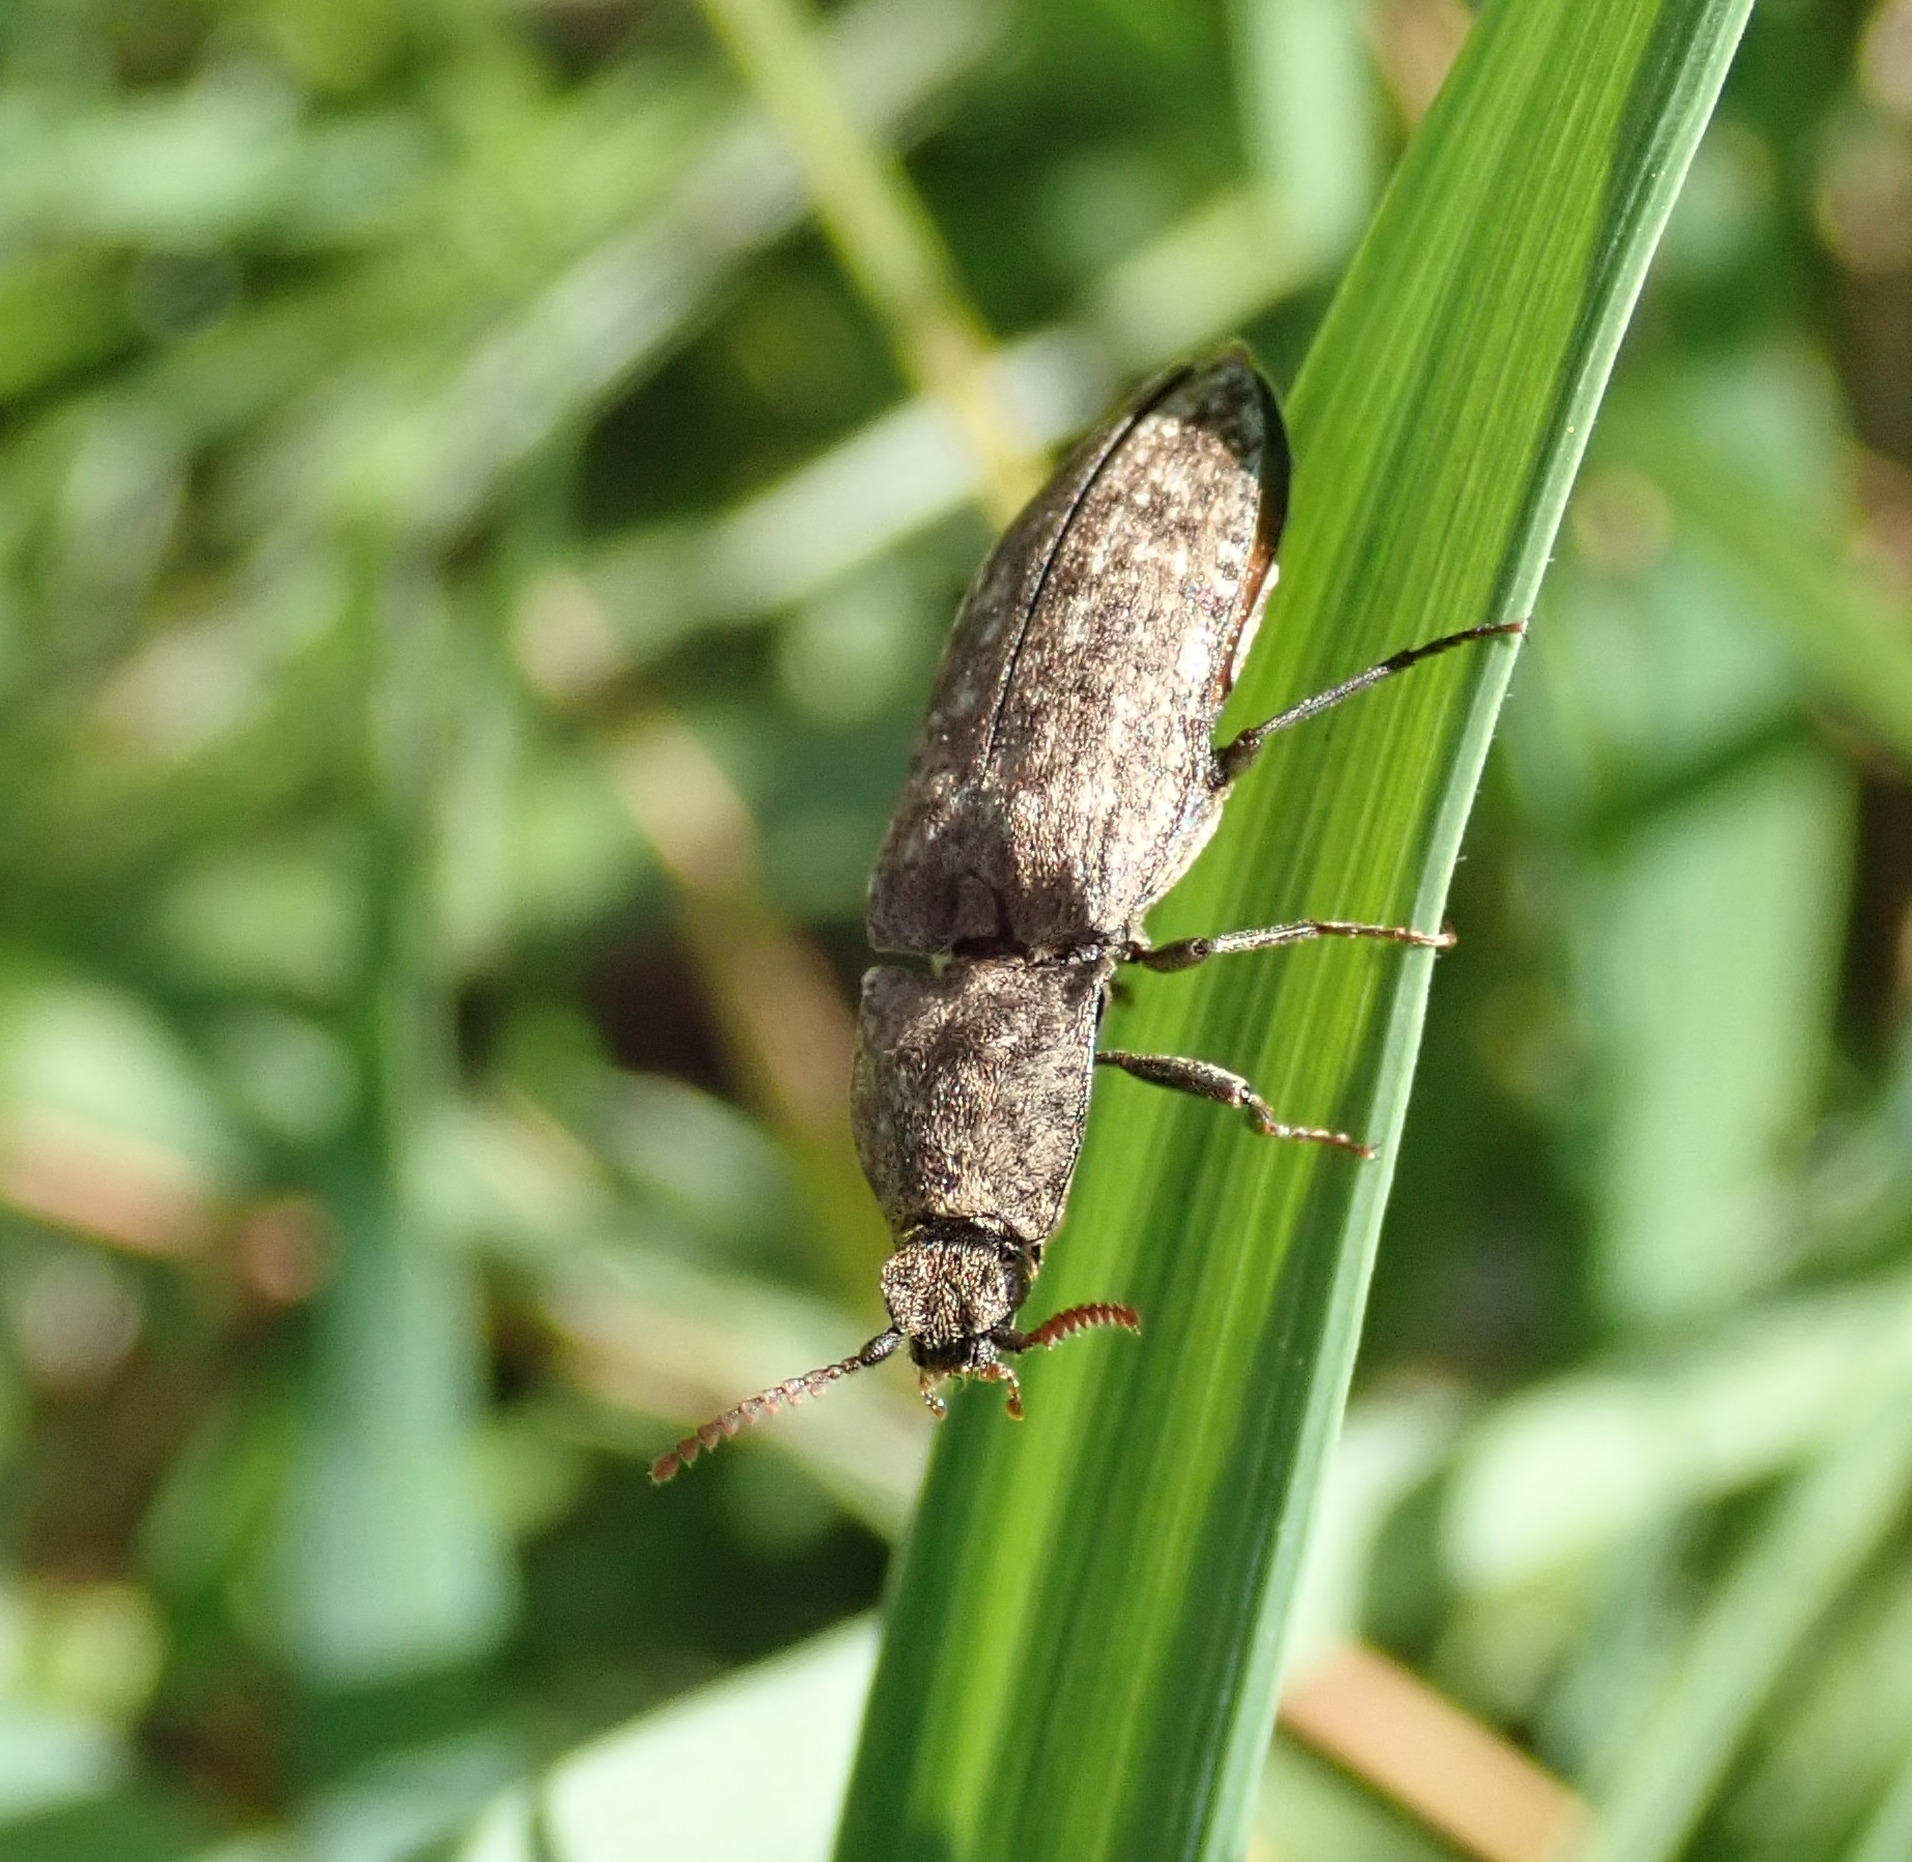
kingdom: Animalia
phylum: Arthropoda
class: Insecta
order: Coleoptera
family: Elateridae
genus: Agrypnus
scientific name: Agrypnus murinus
